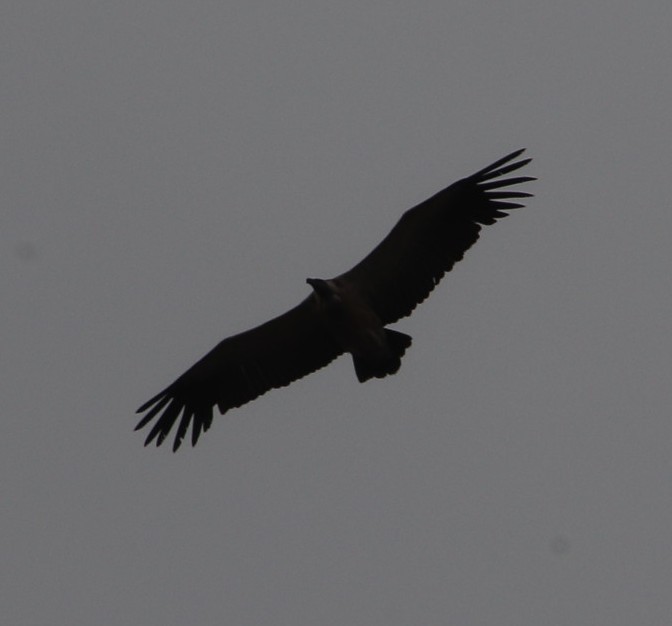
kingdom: Animalia
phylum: Chordata
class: Aves
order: Accipitriformes
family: Accipitridae
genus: Gyps
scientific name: Gyps africanus
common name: White-backed vulture
